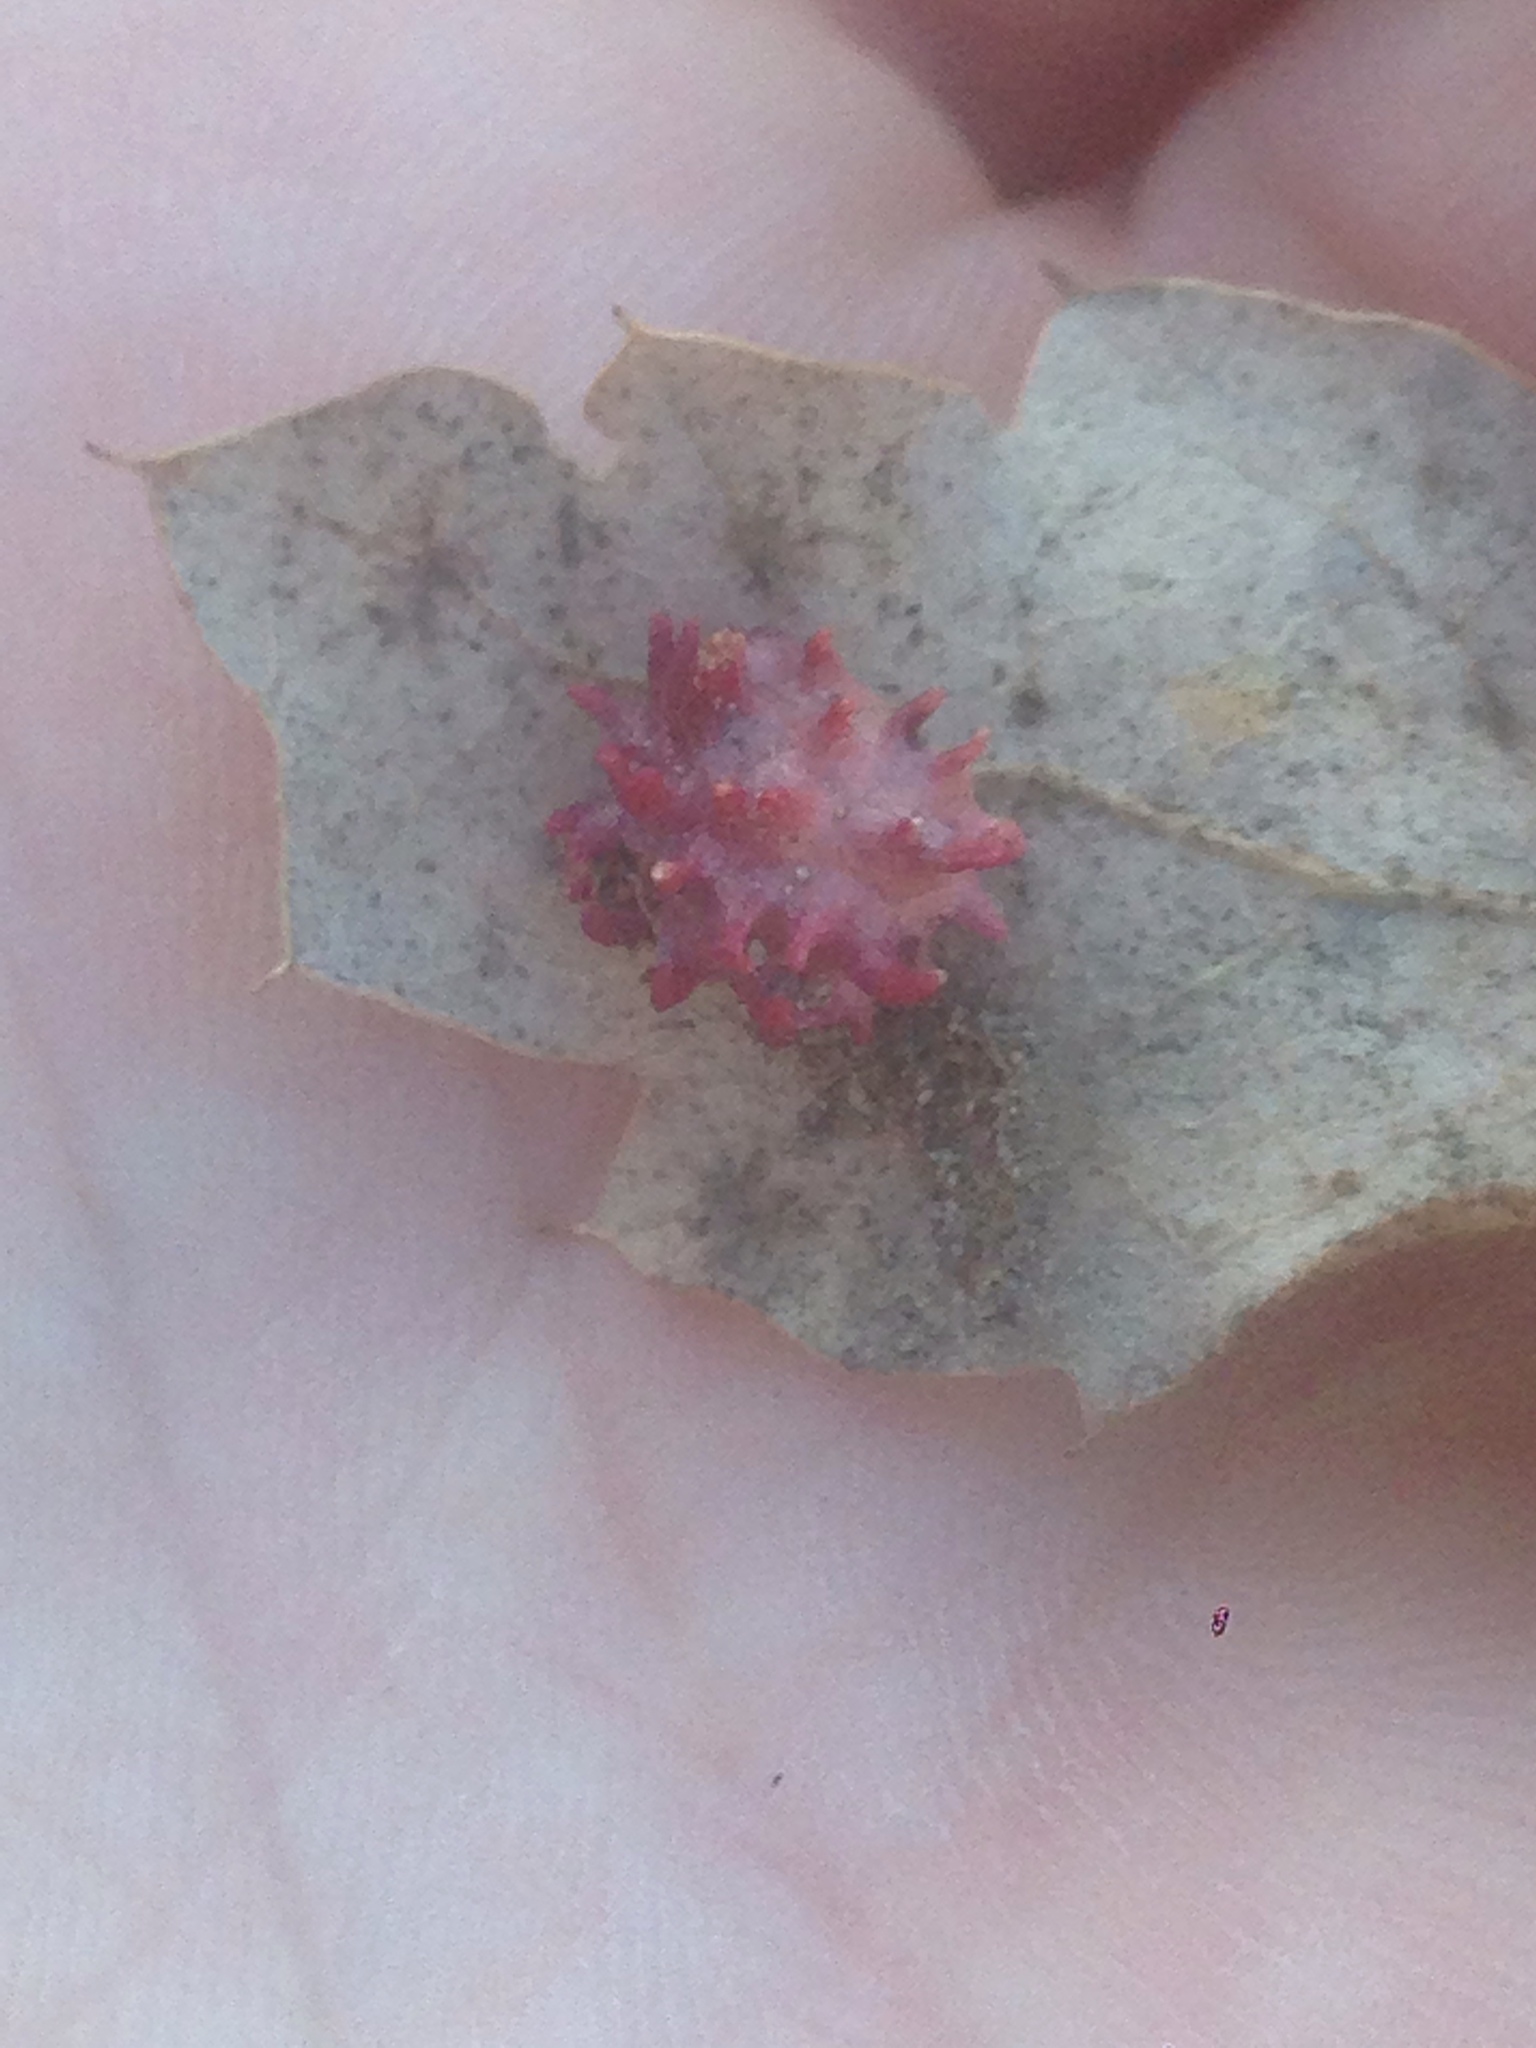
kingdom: Animalia
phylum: Arthropoda
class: Insecta
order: Hymenoptera
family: Cynipidae
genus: Cynips
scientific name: Cynips
